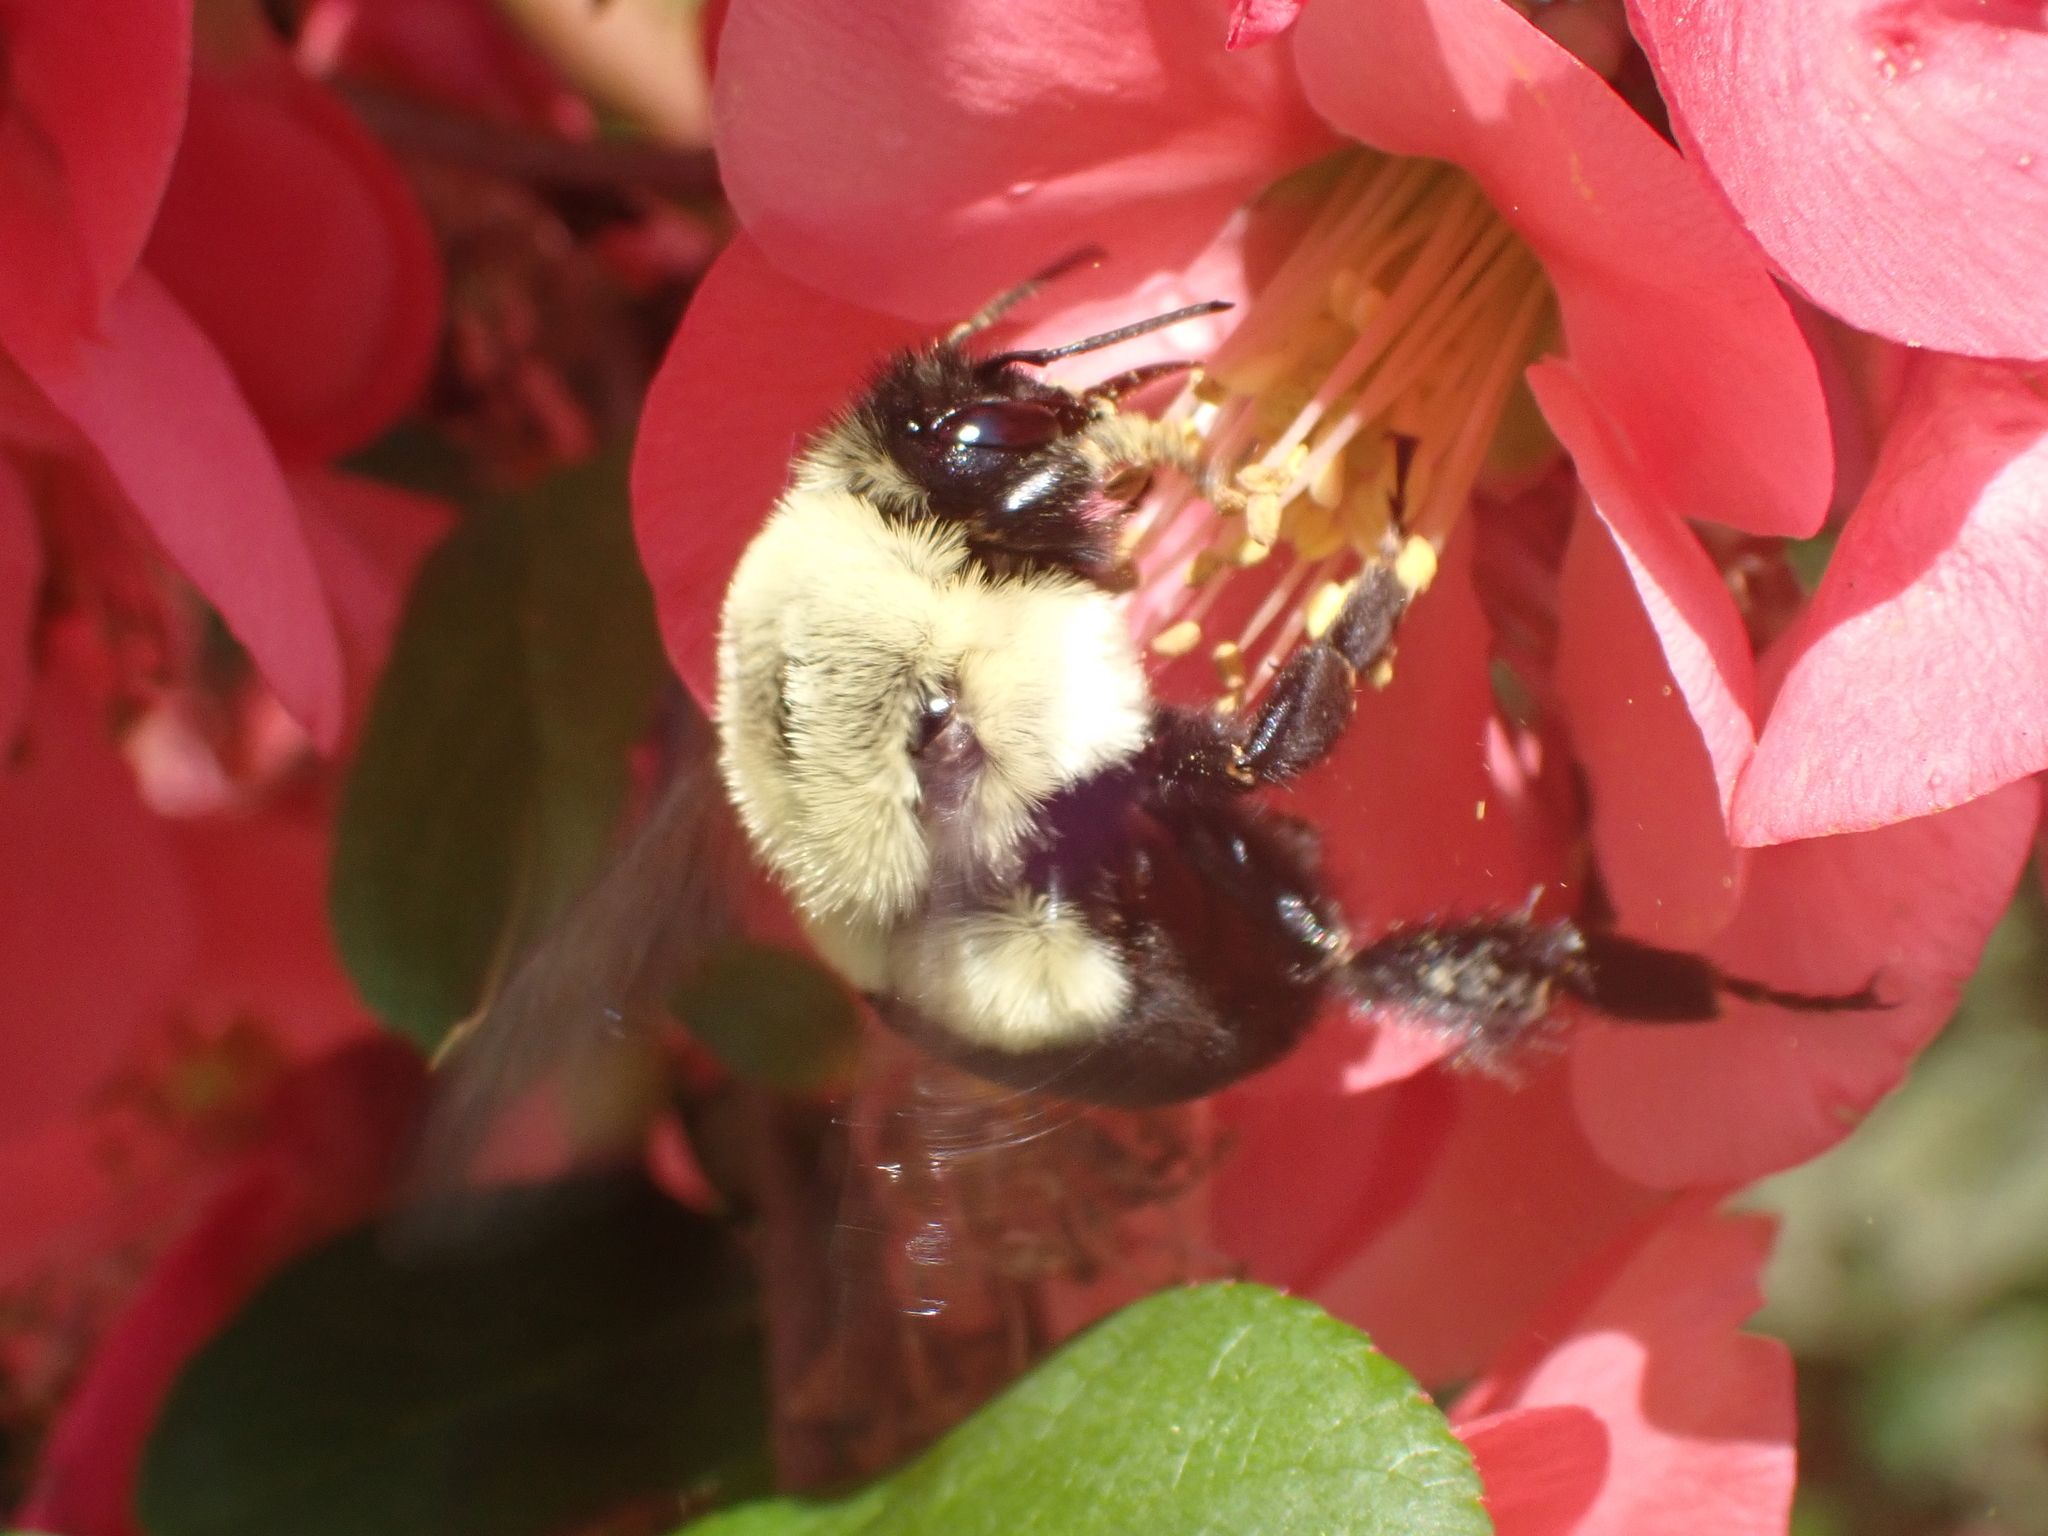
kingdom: Animalia
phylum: Arthropoda
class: Insecta
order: Hymenoptera
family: Apidae
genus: Bombus
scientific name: Bombus impatiens
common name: Common eastern bumble bee
